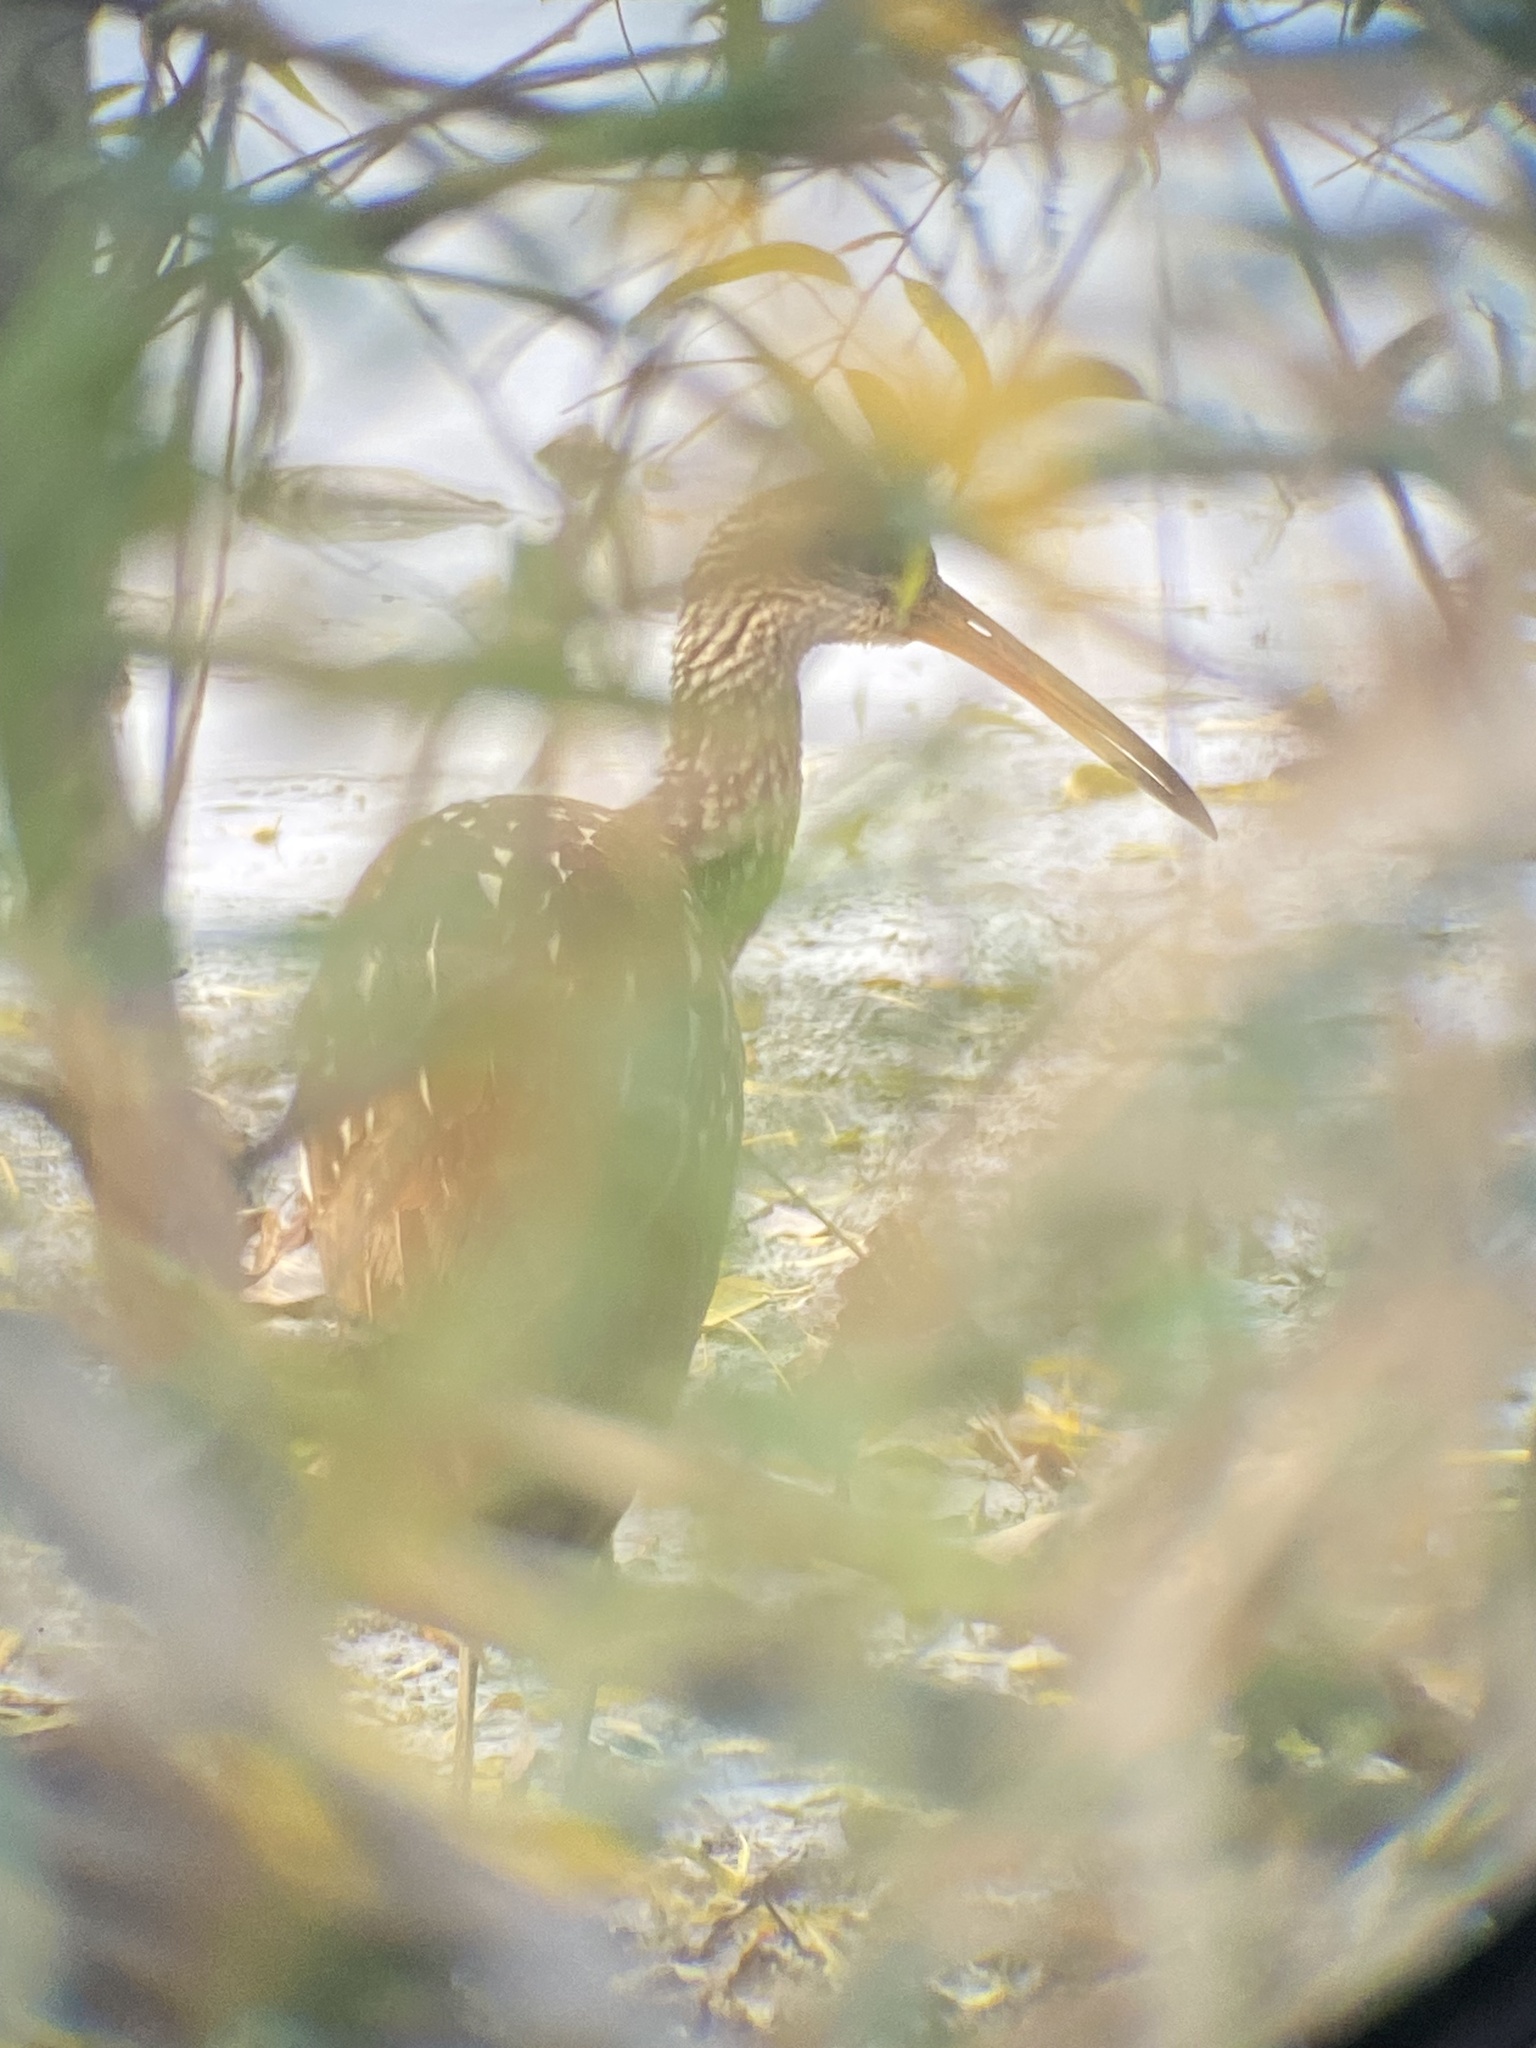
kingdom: Animalia
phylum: Chordata
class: Aves
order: Gruiformes
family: Aramidae
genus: Aramus
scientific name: Aramus guarauna
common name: Limpkin
